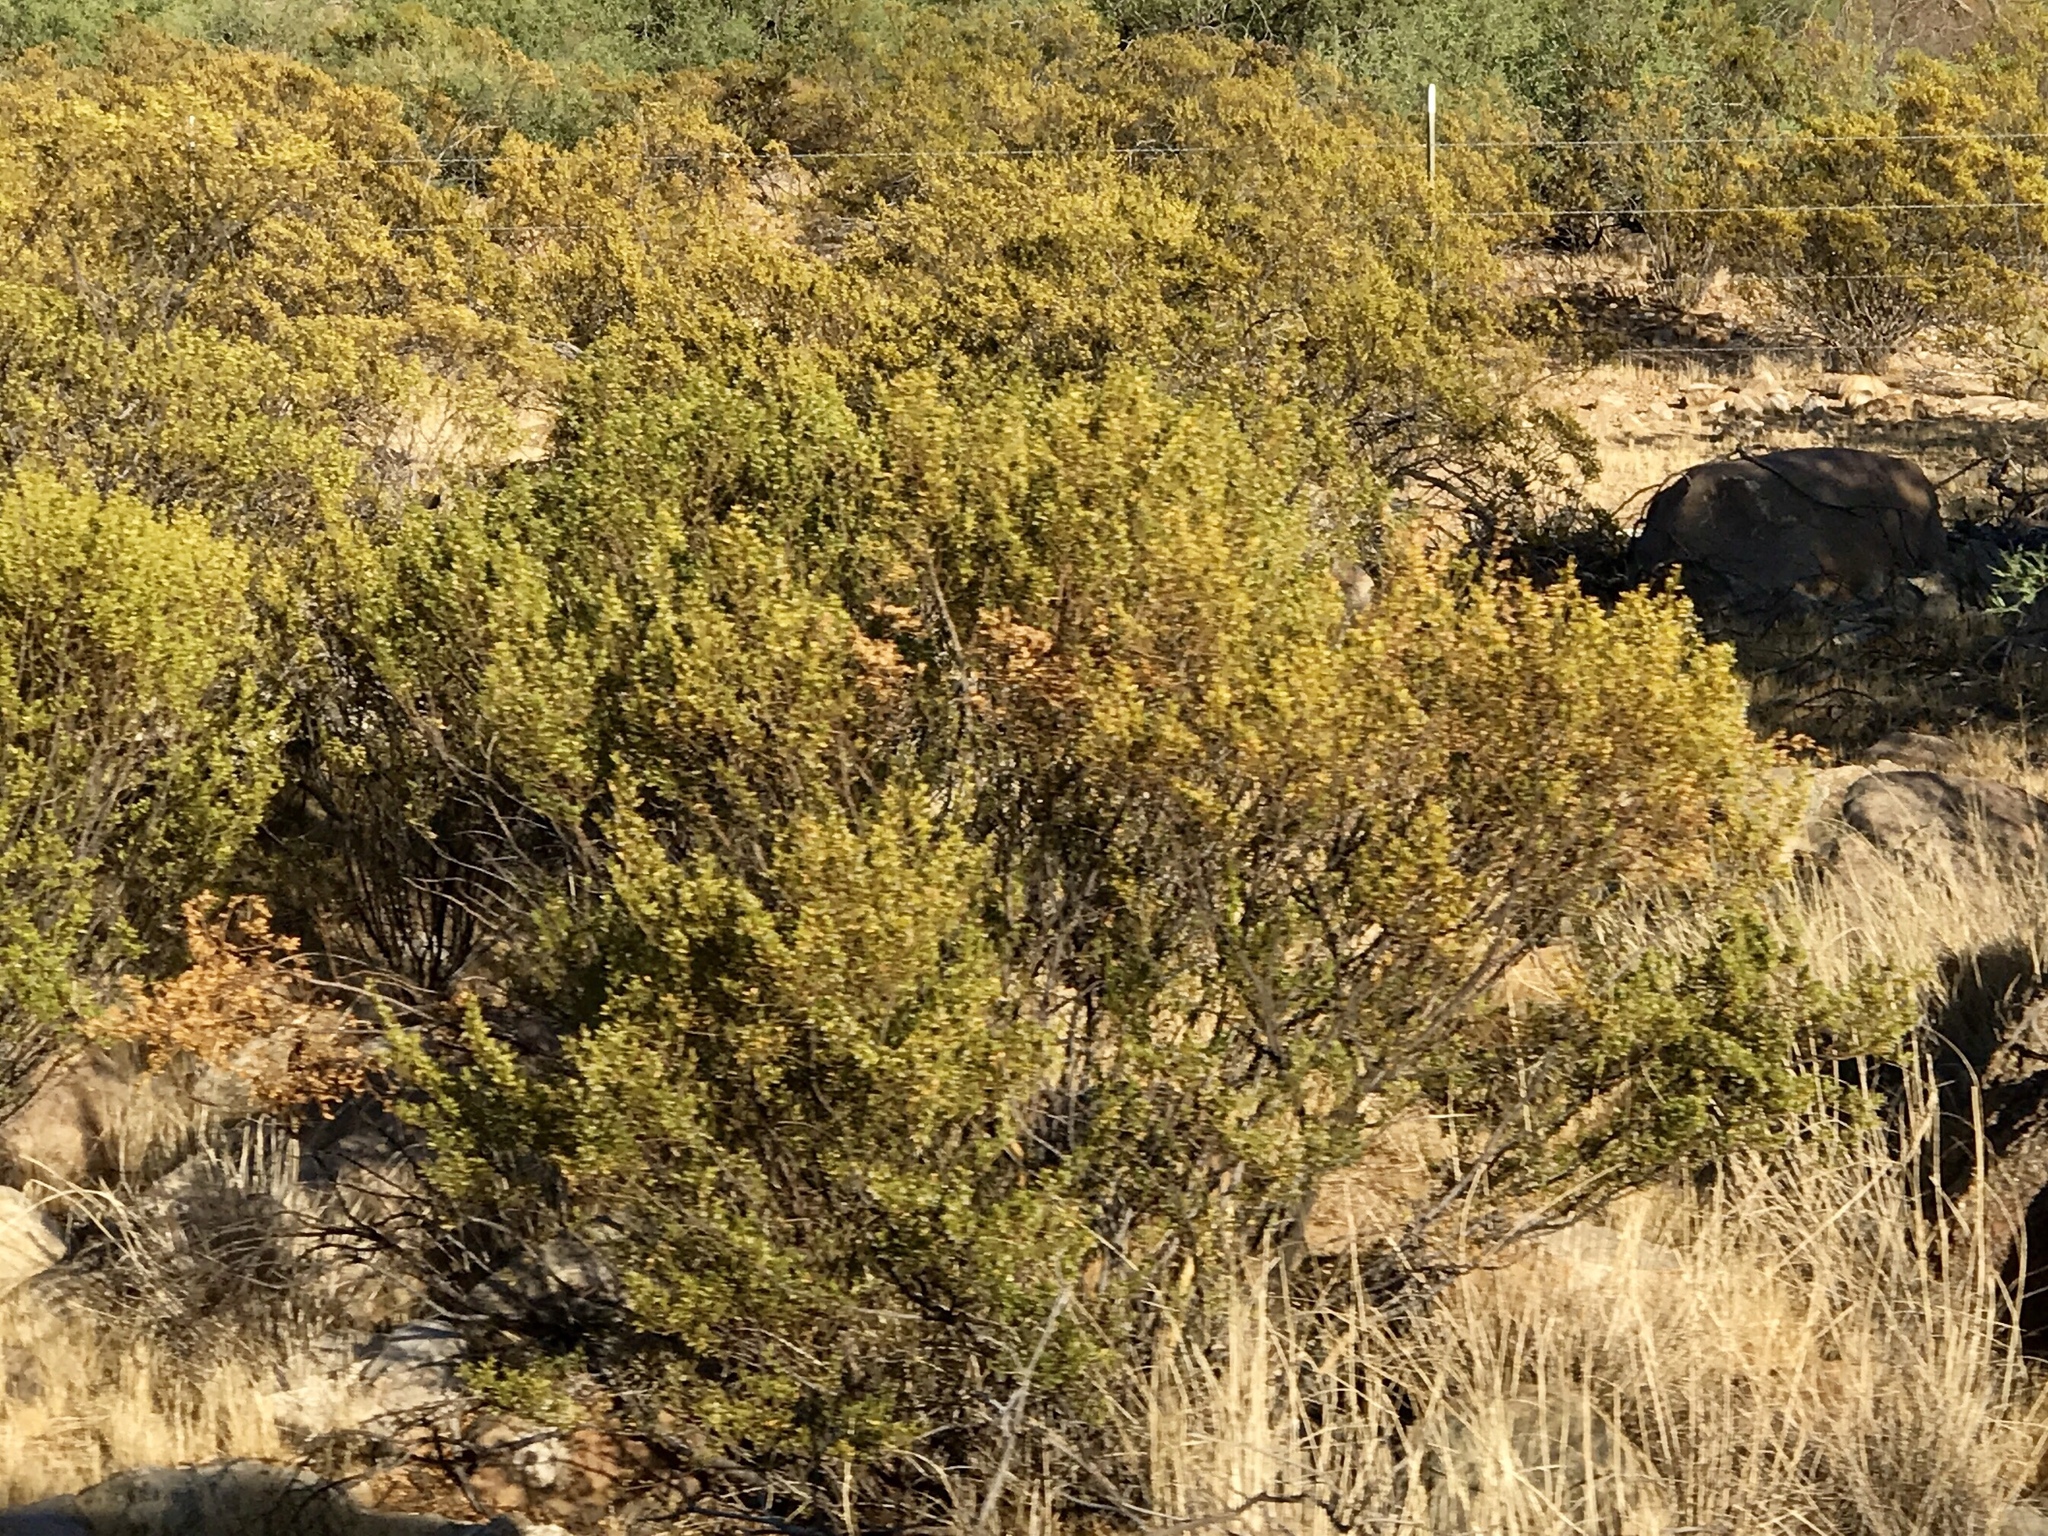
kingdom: Plantae
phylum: Tracheophyta
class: Magnoliopsida
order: Zygophyllales
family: Zygophyllaceae
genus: Larrea
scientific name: Larrea tridentata
